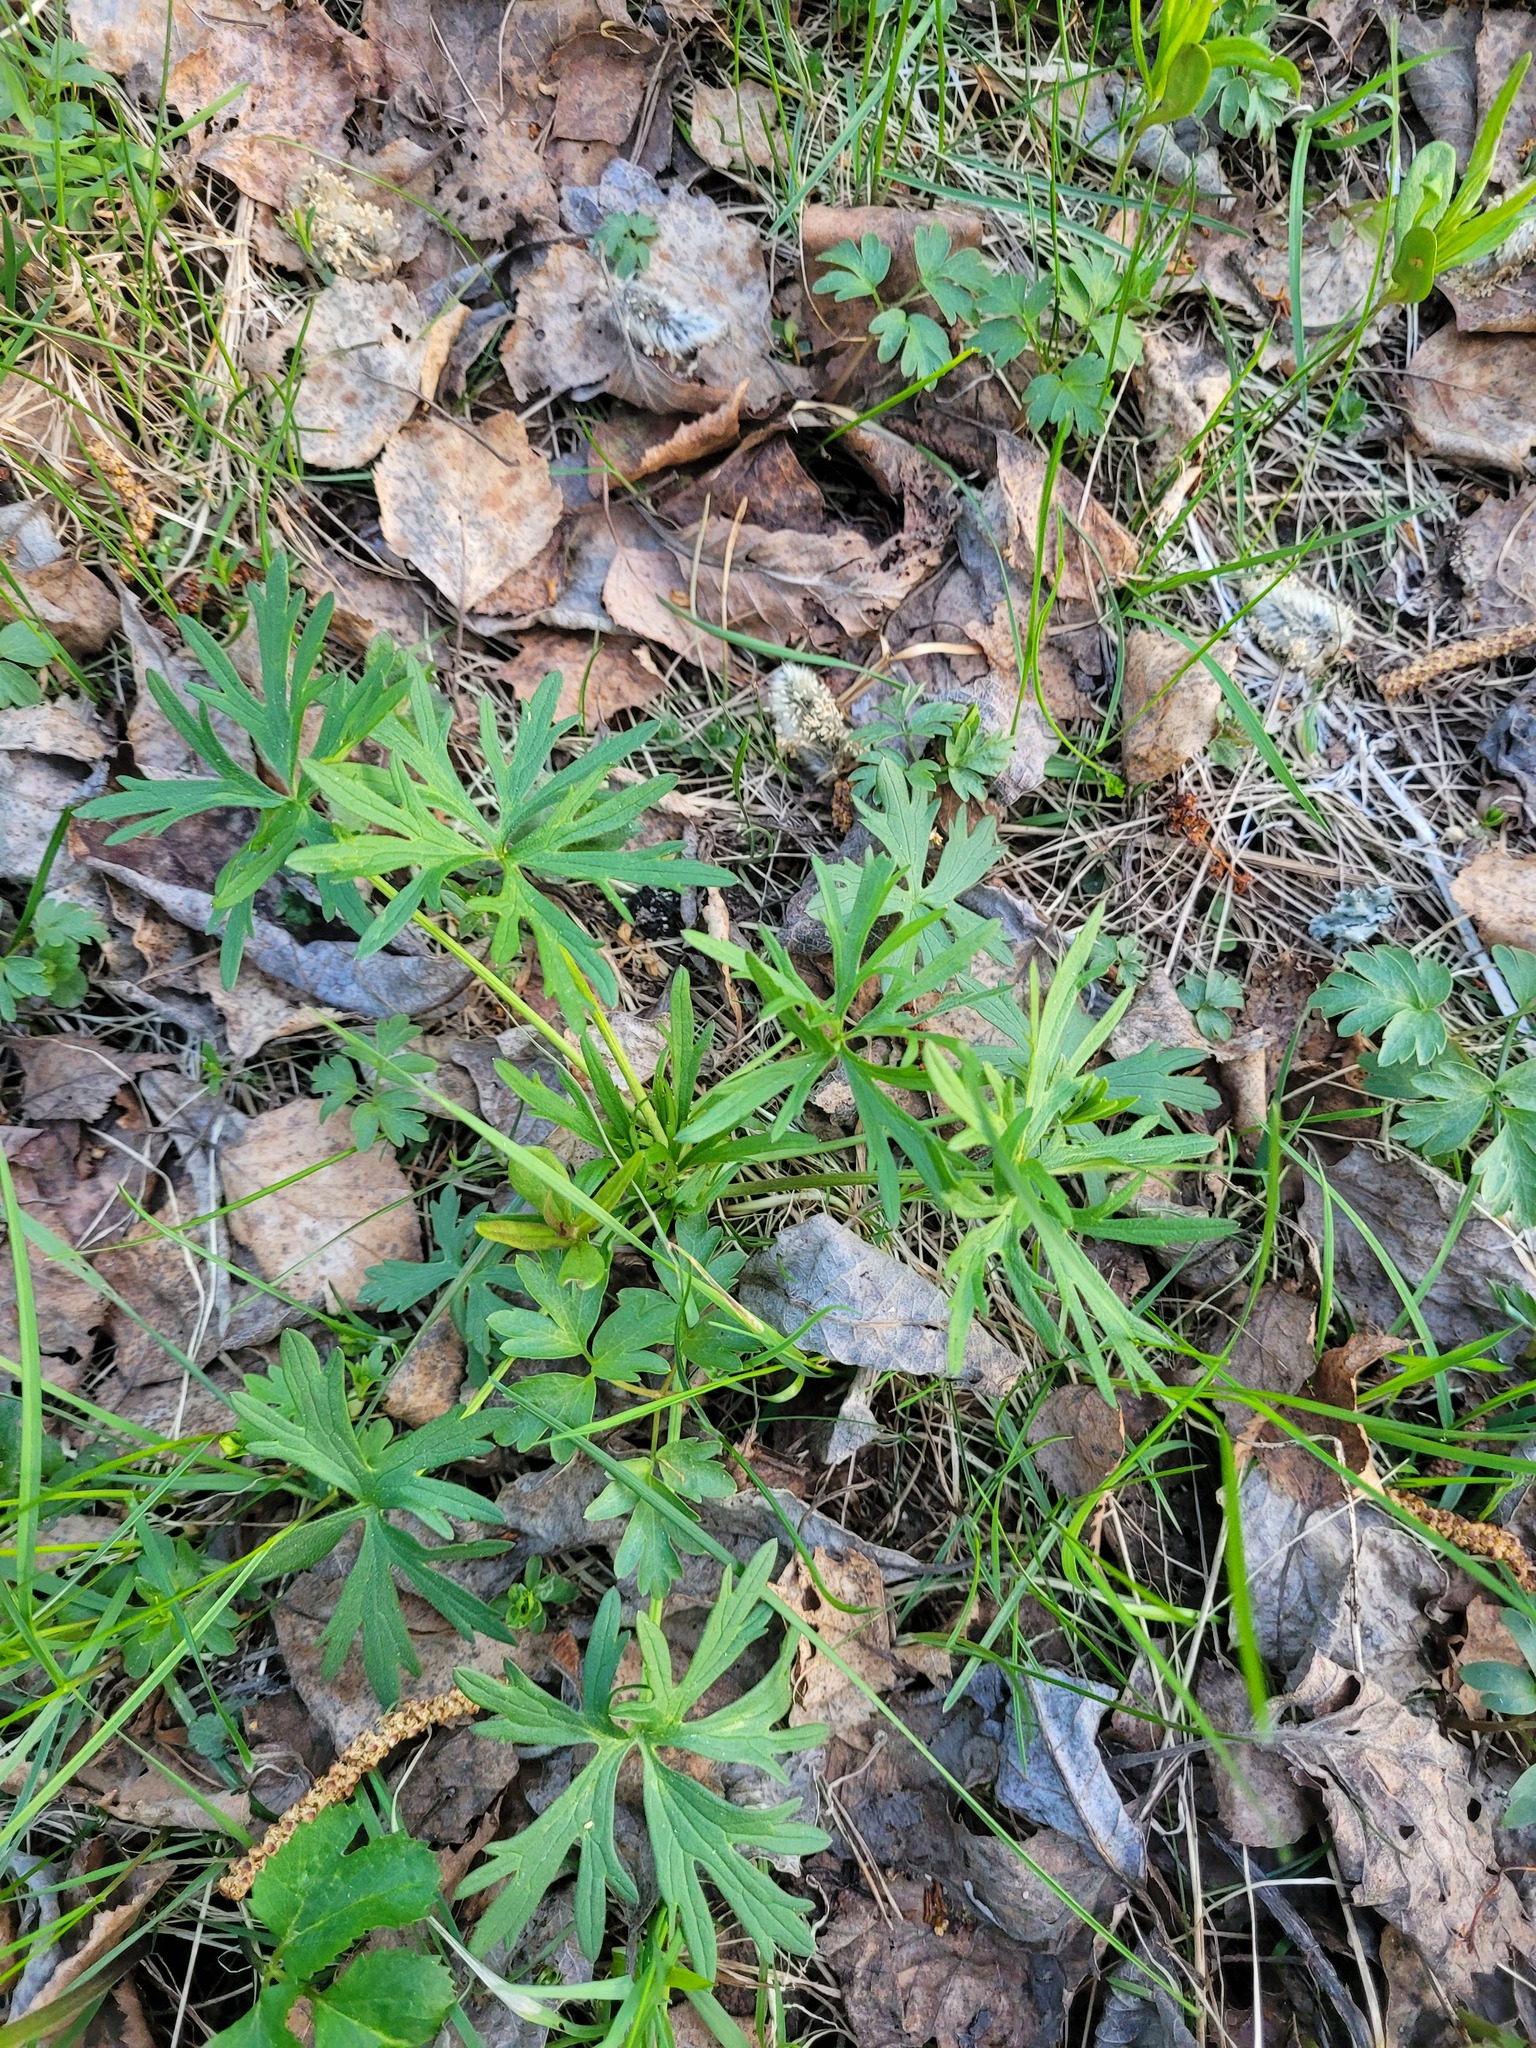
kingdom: Plantae
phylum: Tracheophyta
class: Magnoliopsida
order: Ranunculales
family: Ranunculaceae
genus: Ranunculus
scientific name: Ranunculus acris
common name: Meadow buttercup
